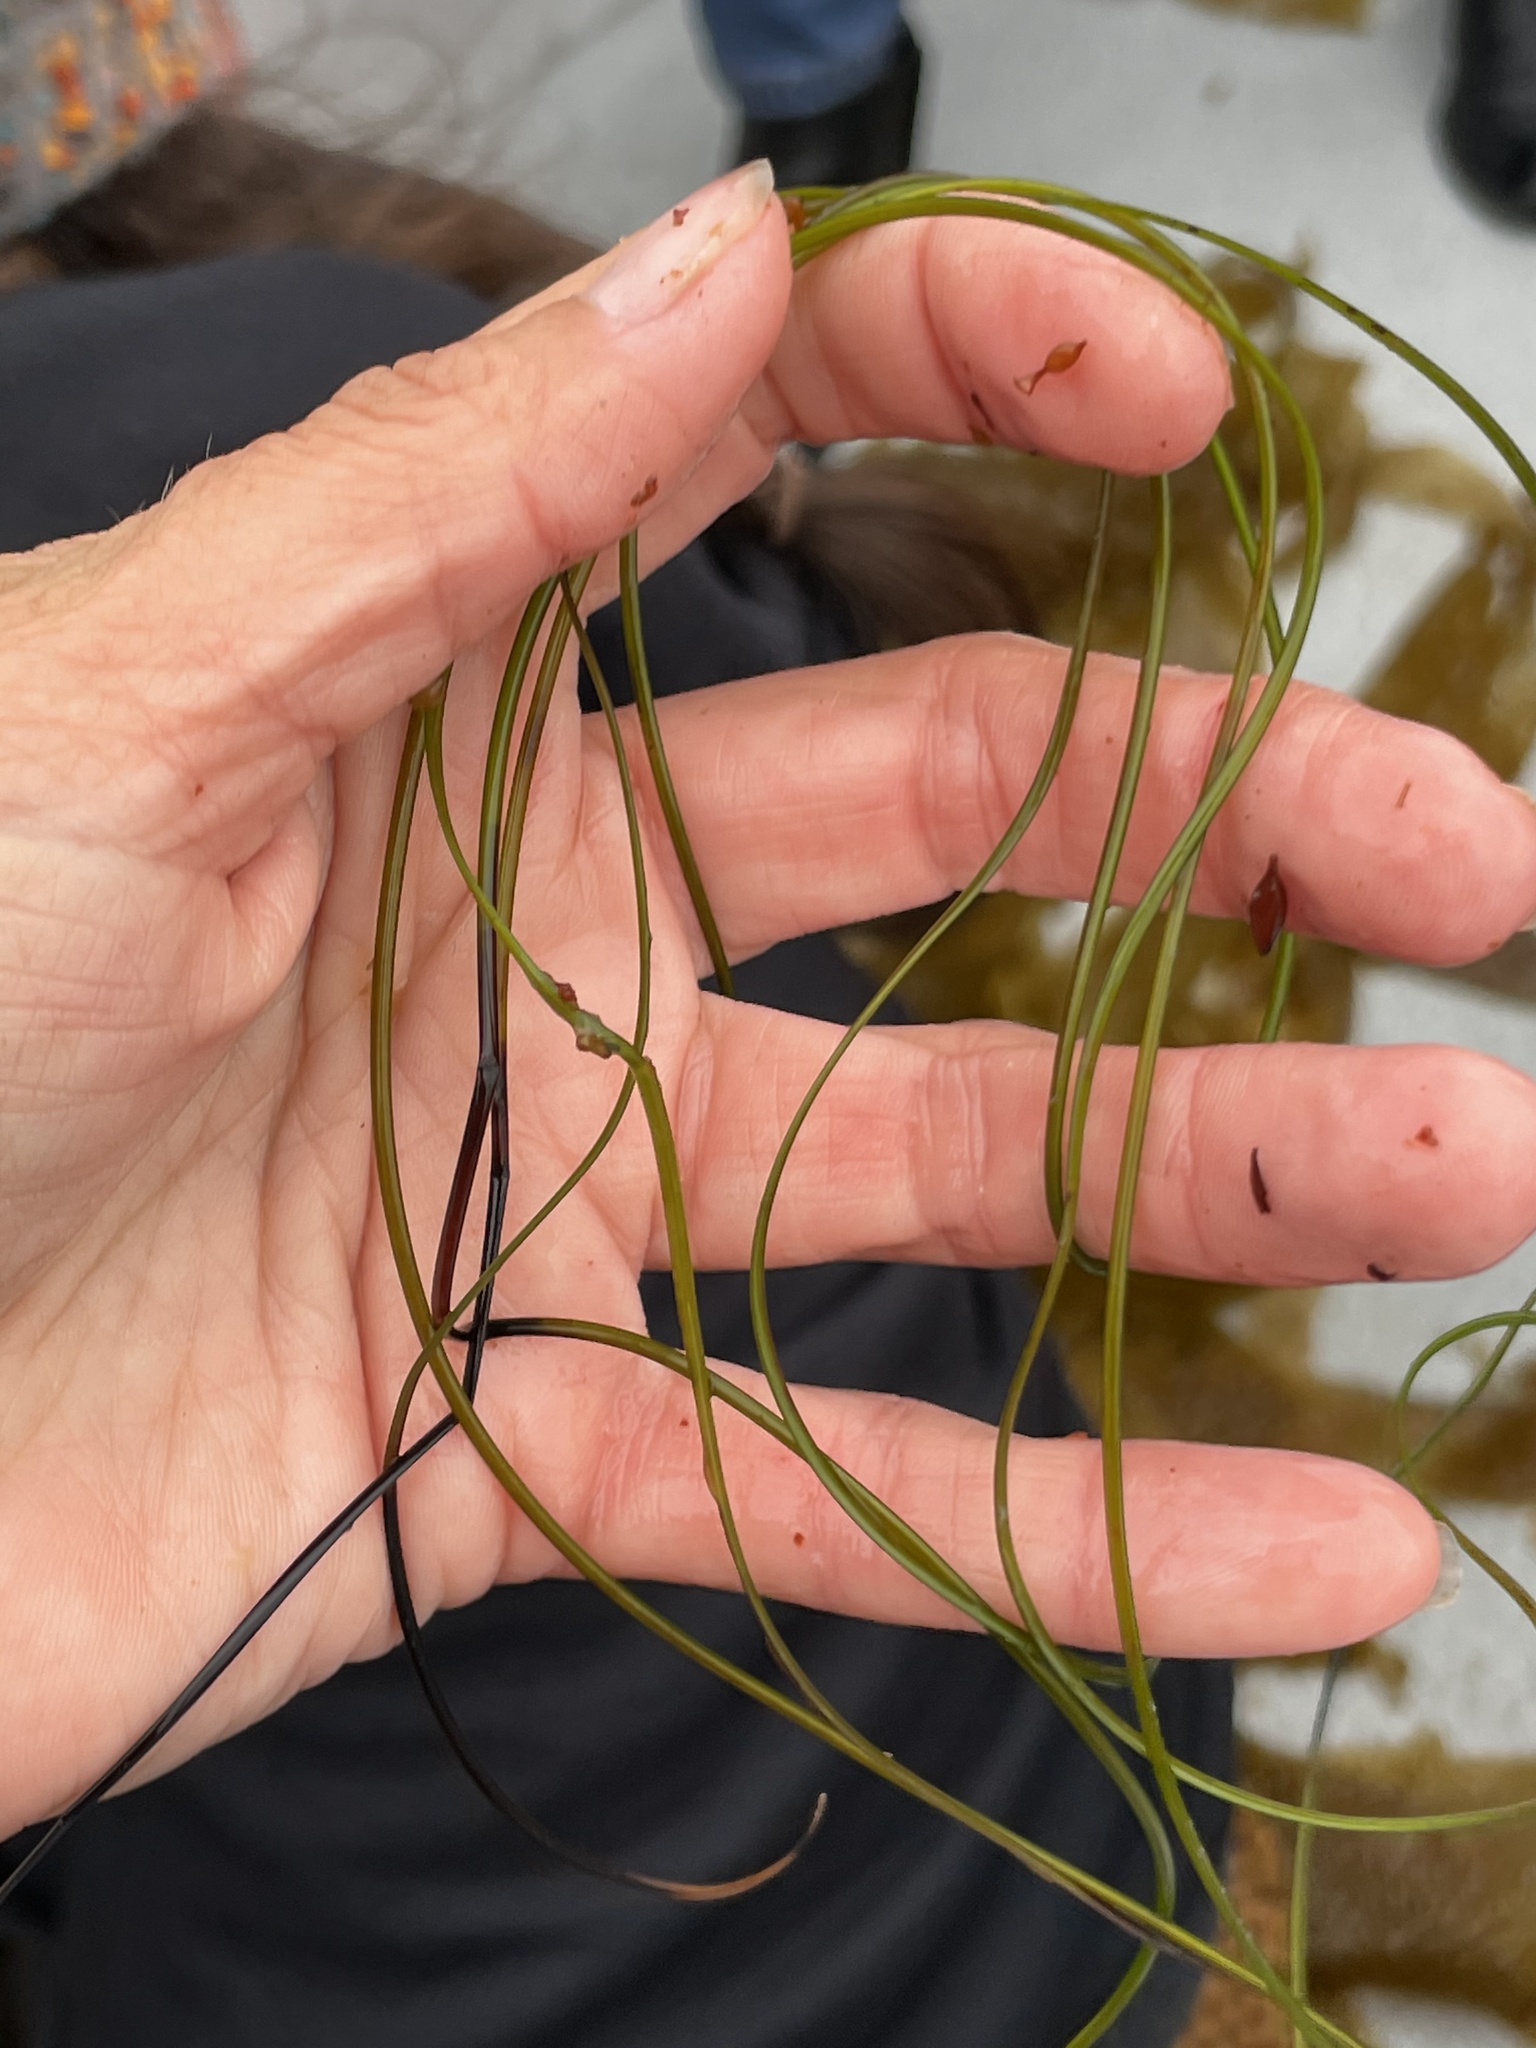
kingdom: Plantae
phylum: Tracheophyta
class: Liliopsida
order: Alismatales
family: Zosteraceae
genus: Phyllospadix
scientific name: Phyllospadix torreyi
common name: Surfgrass
